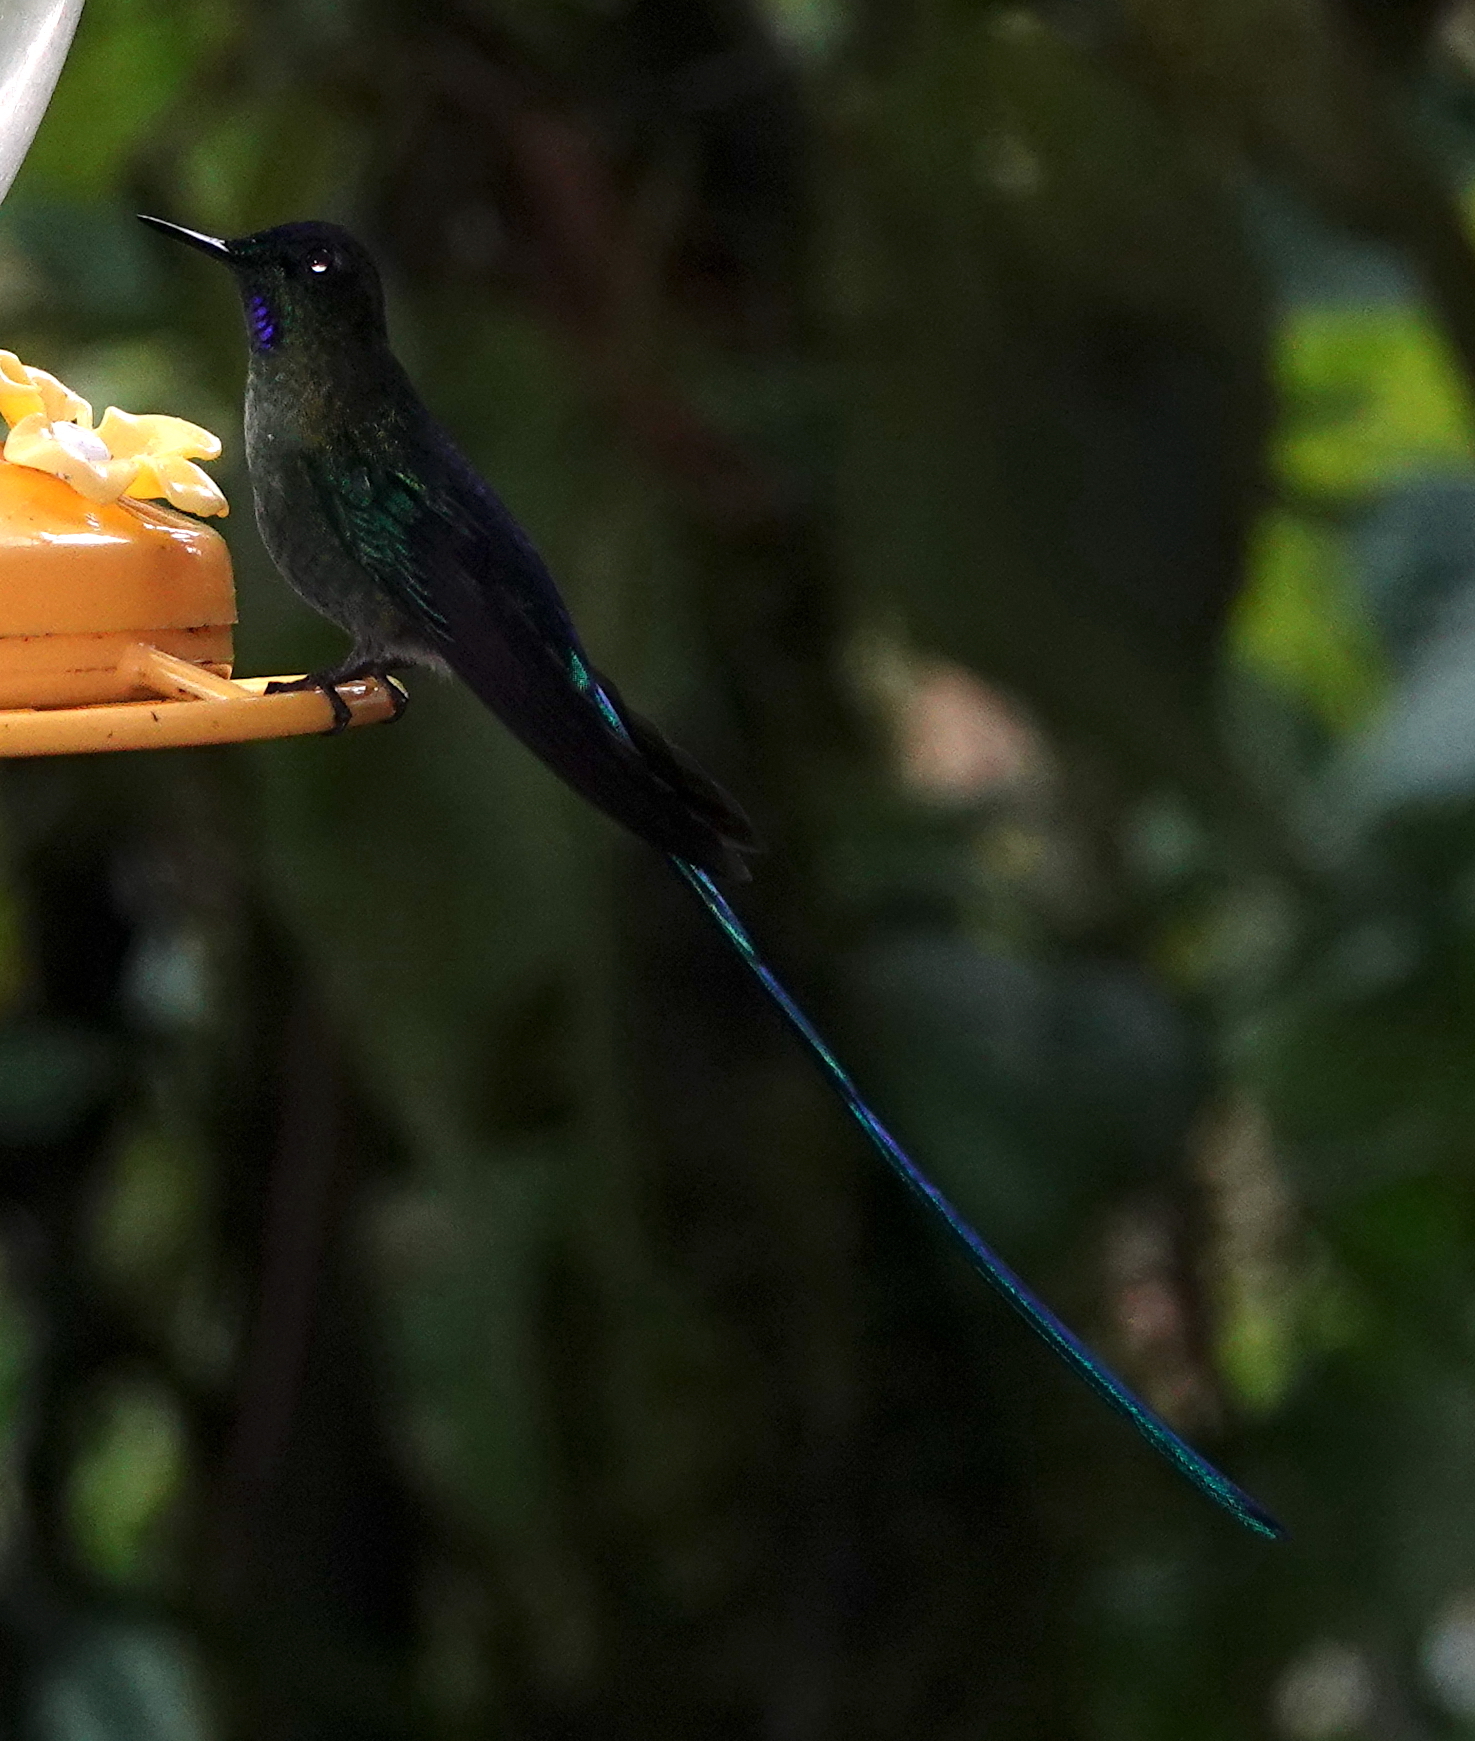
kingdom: Animalia
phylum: Chordata
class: Aves
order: Apodiformes
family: Trochilidae
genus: Aglaiocercus
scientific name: Aglaiocercus kingii
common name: Long-tailed sylph
